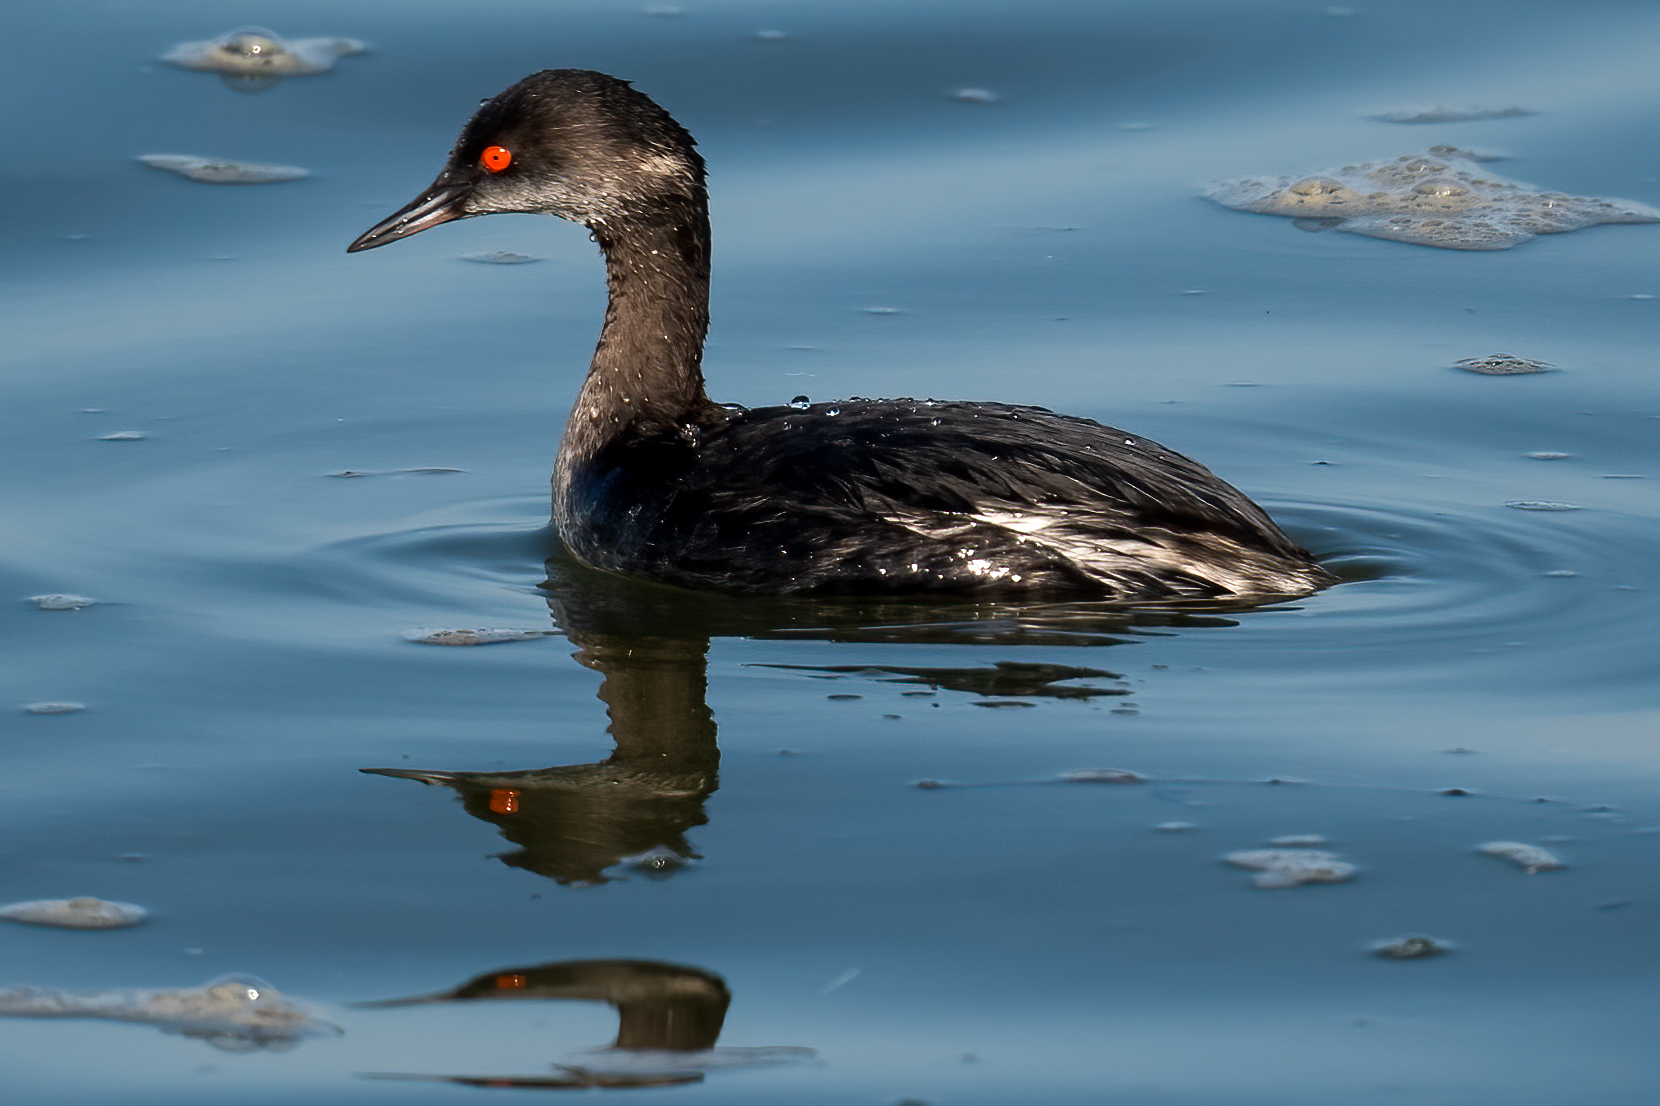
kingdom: Animalia
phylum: Chordata
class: Aves
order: Podicipediformes
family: Podicipedidae
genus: Podiceps
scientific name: Podiceps nigricollis
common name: Black-necked grebe
